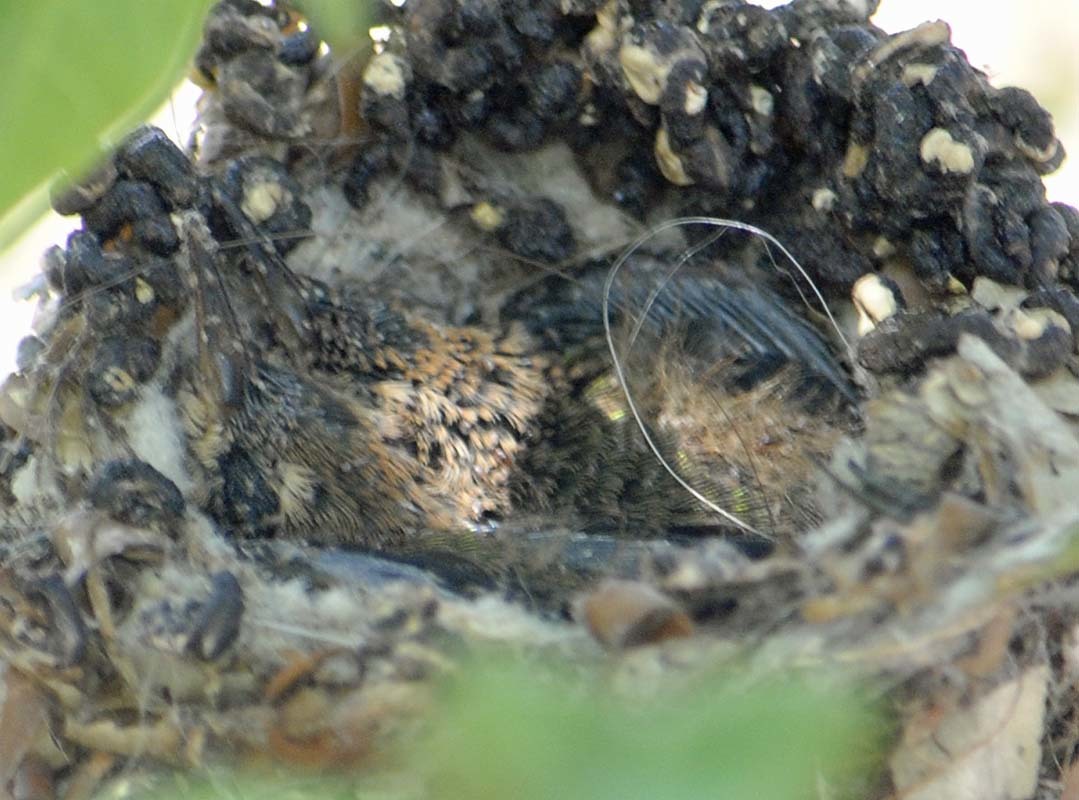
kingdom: Animalia
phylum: Chordata
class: Aves
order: Apodiformes
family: Trochilidae
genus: Cynanthus
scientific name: Cynanthus latirostris
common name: Broad-billed hummingbird
